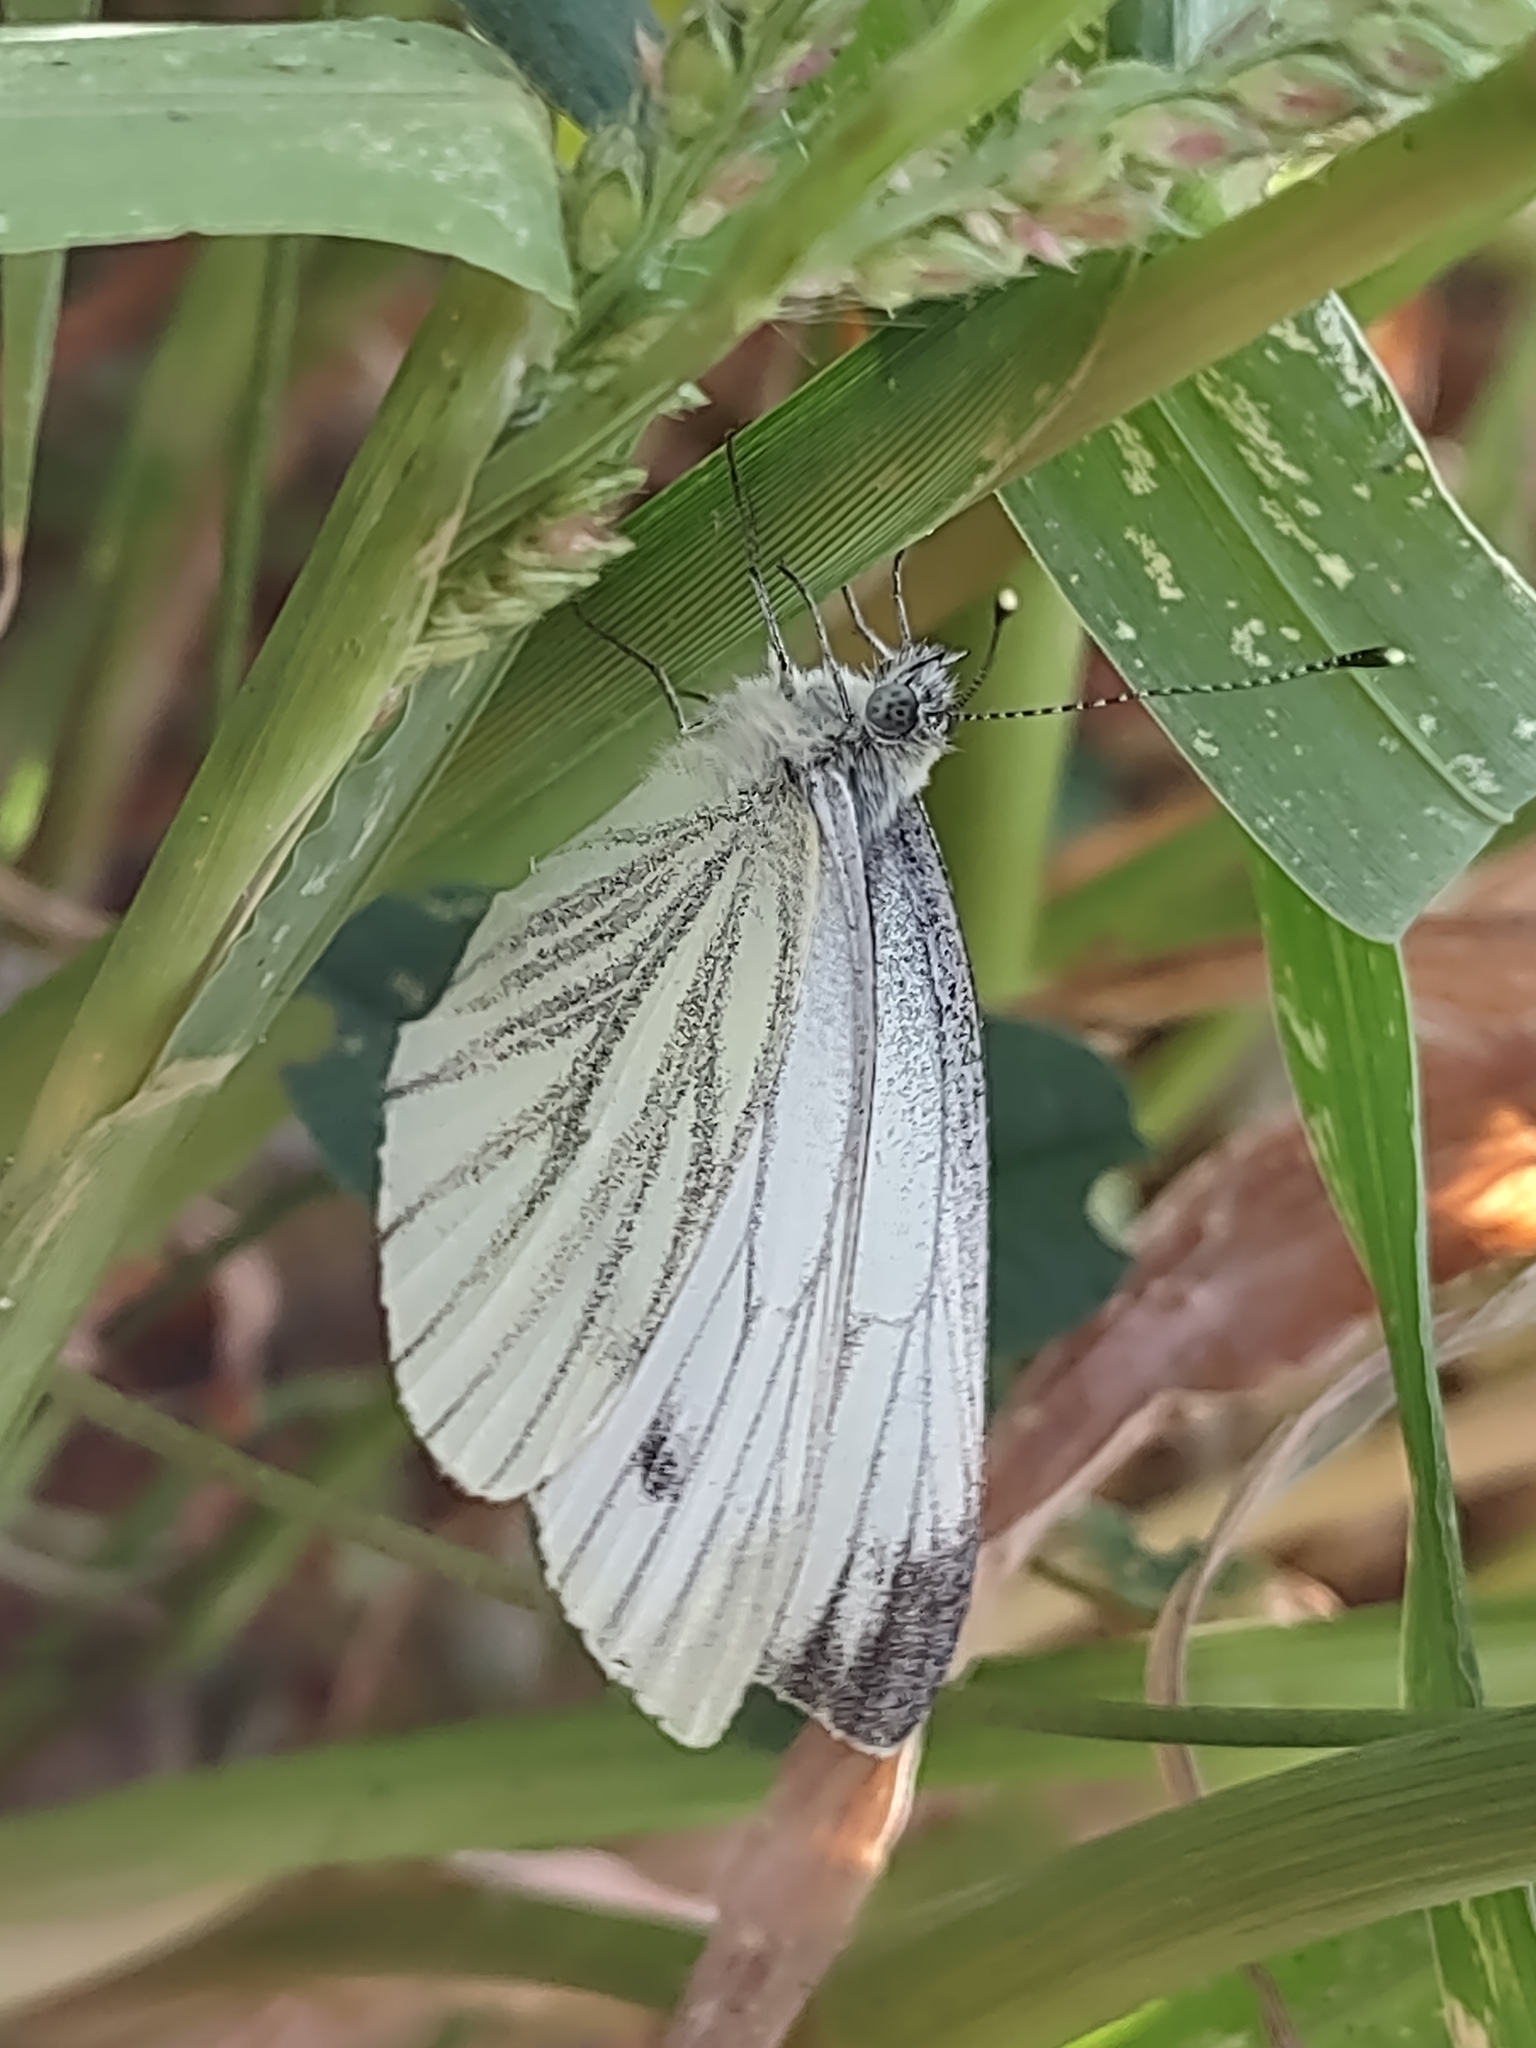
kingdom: Animalia
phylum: Arthropoda
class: Insecta
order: Lepidoptera
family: Pieridae
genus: Pieris
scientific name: Pieris napi
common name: Green-veined white
